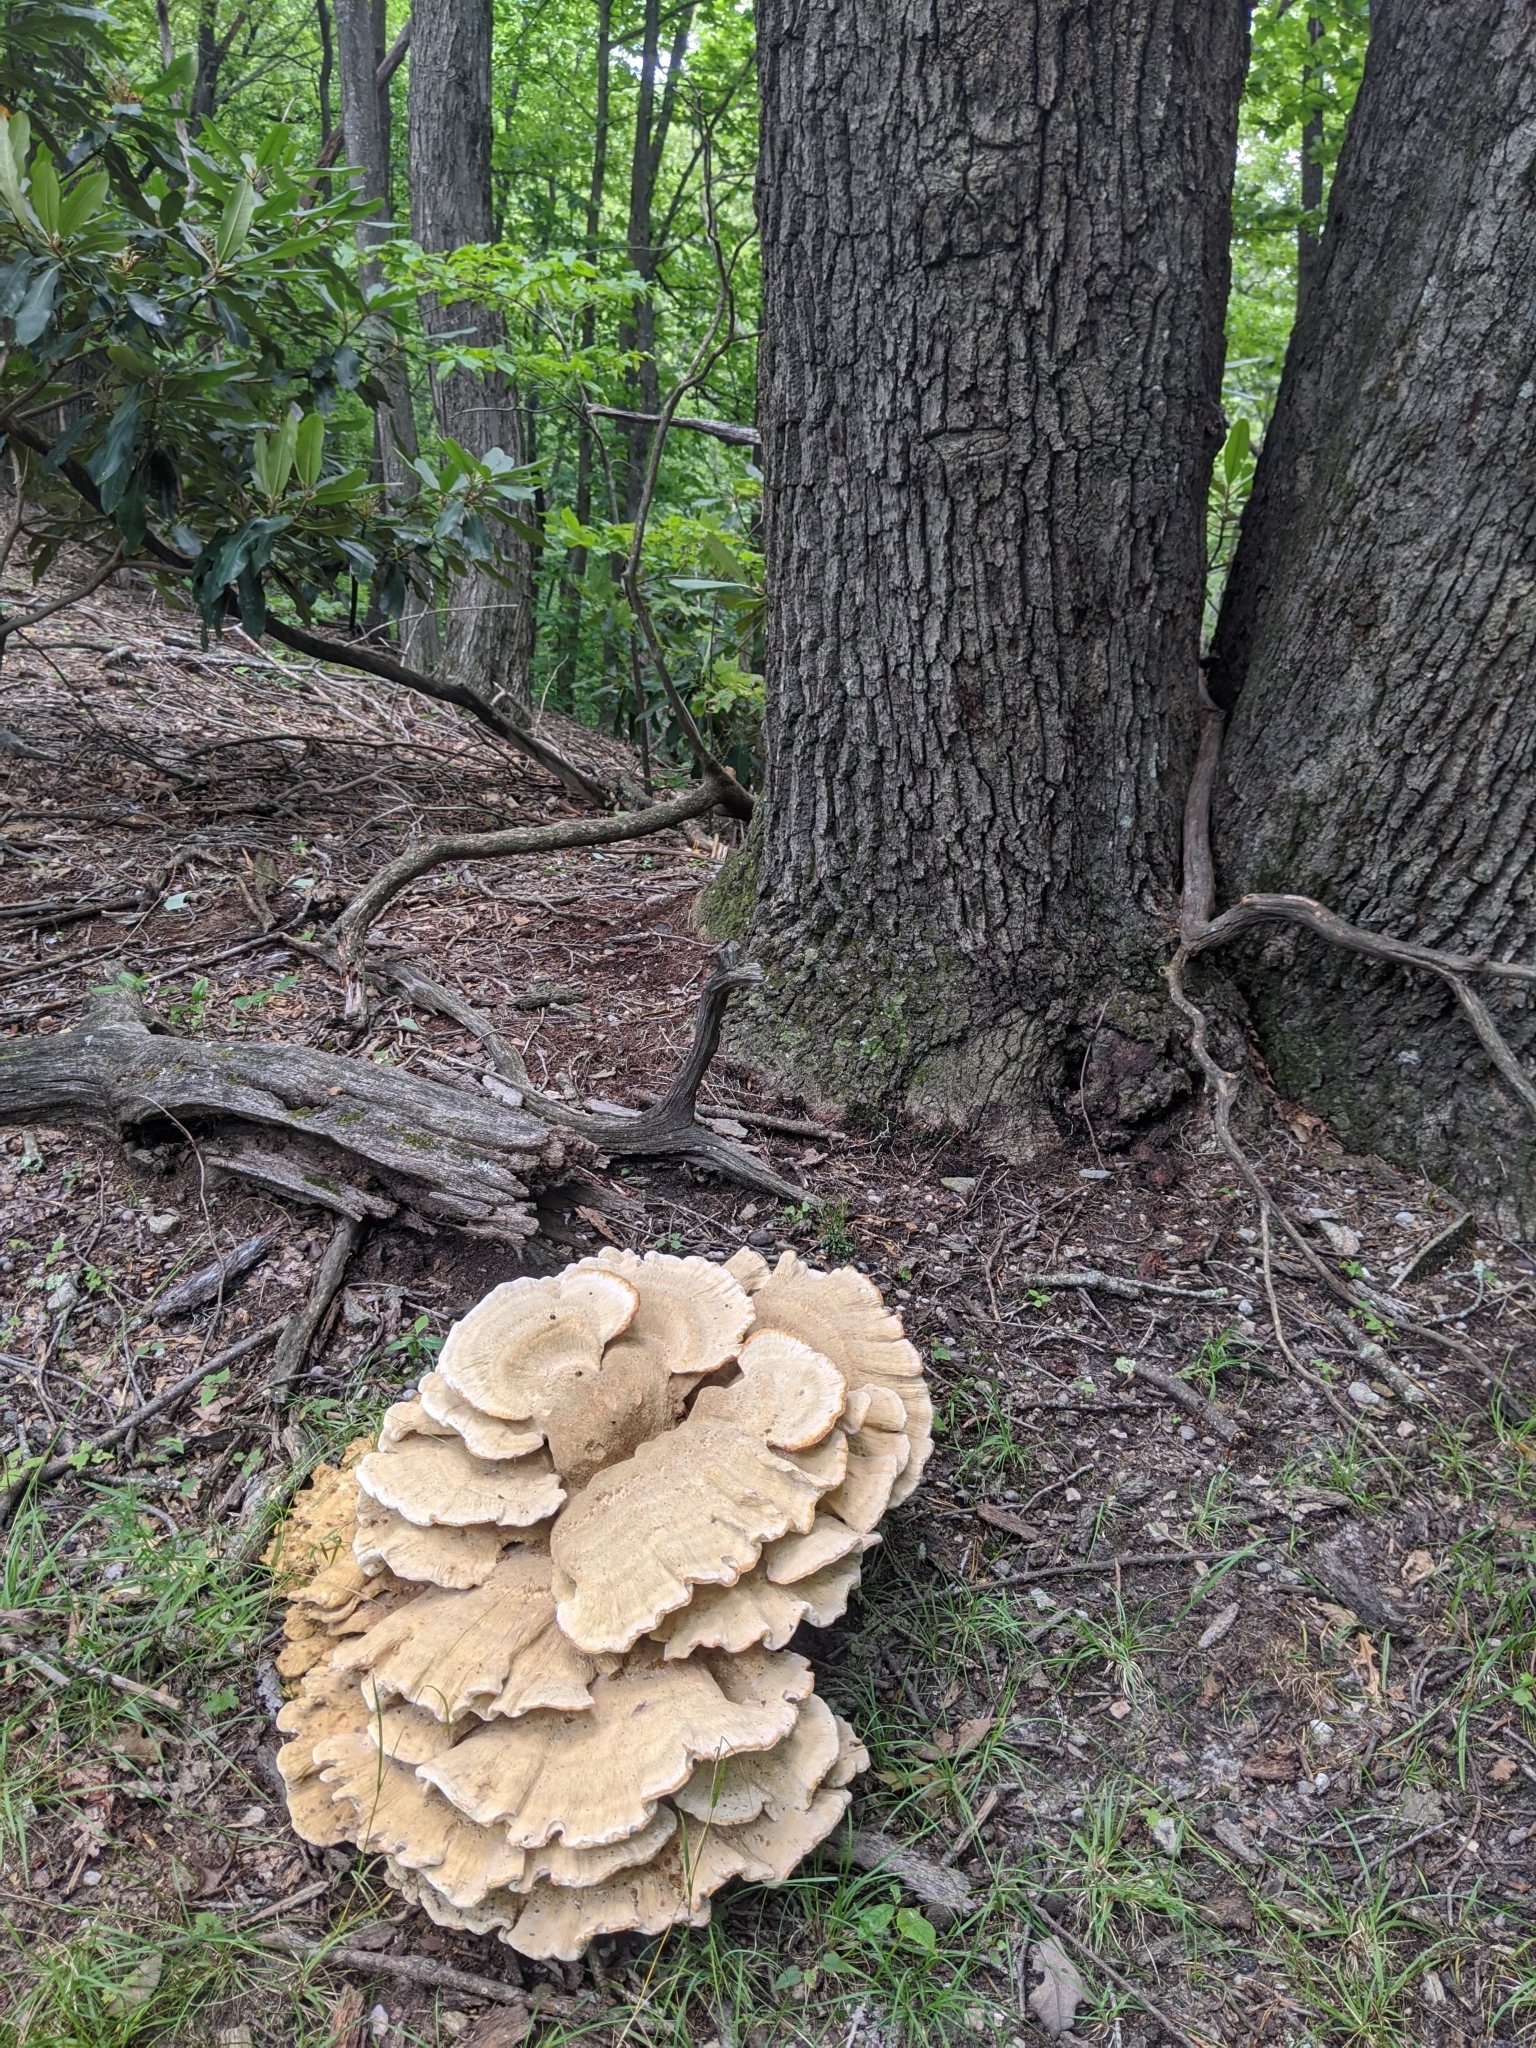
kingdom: Fungi
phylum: Basidiomycota
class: Agaricomycetes
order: Russulales
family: Bondarzewiaceae
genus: Bondarzewia
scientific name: Bondarzewia berkeleyi
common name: Berkeley's polypore
